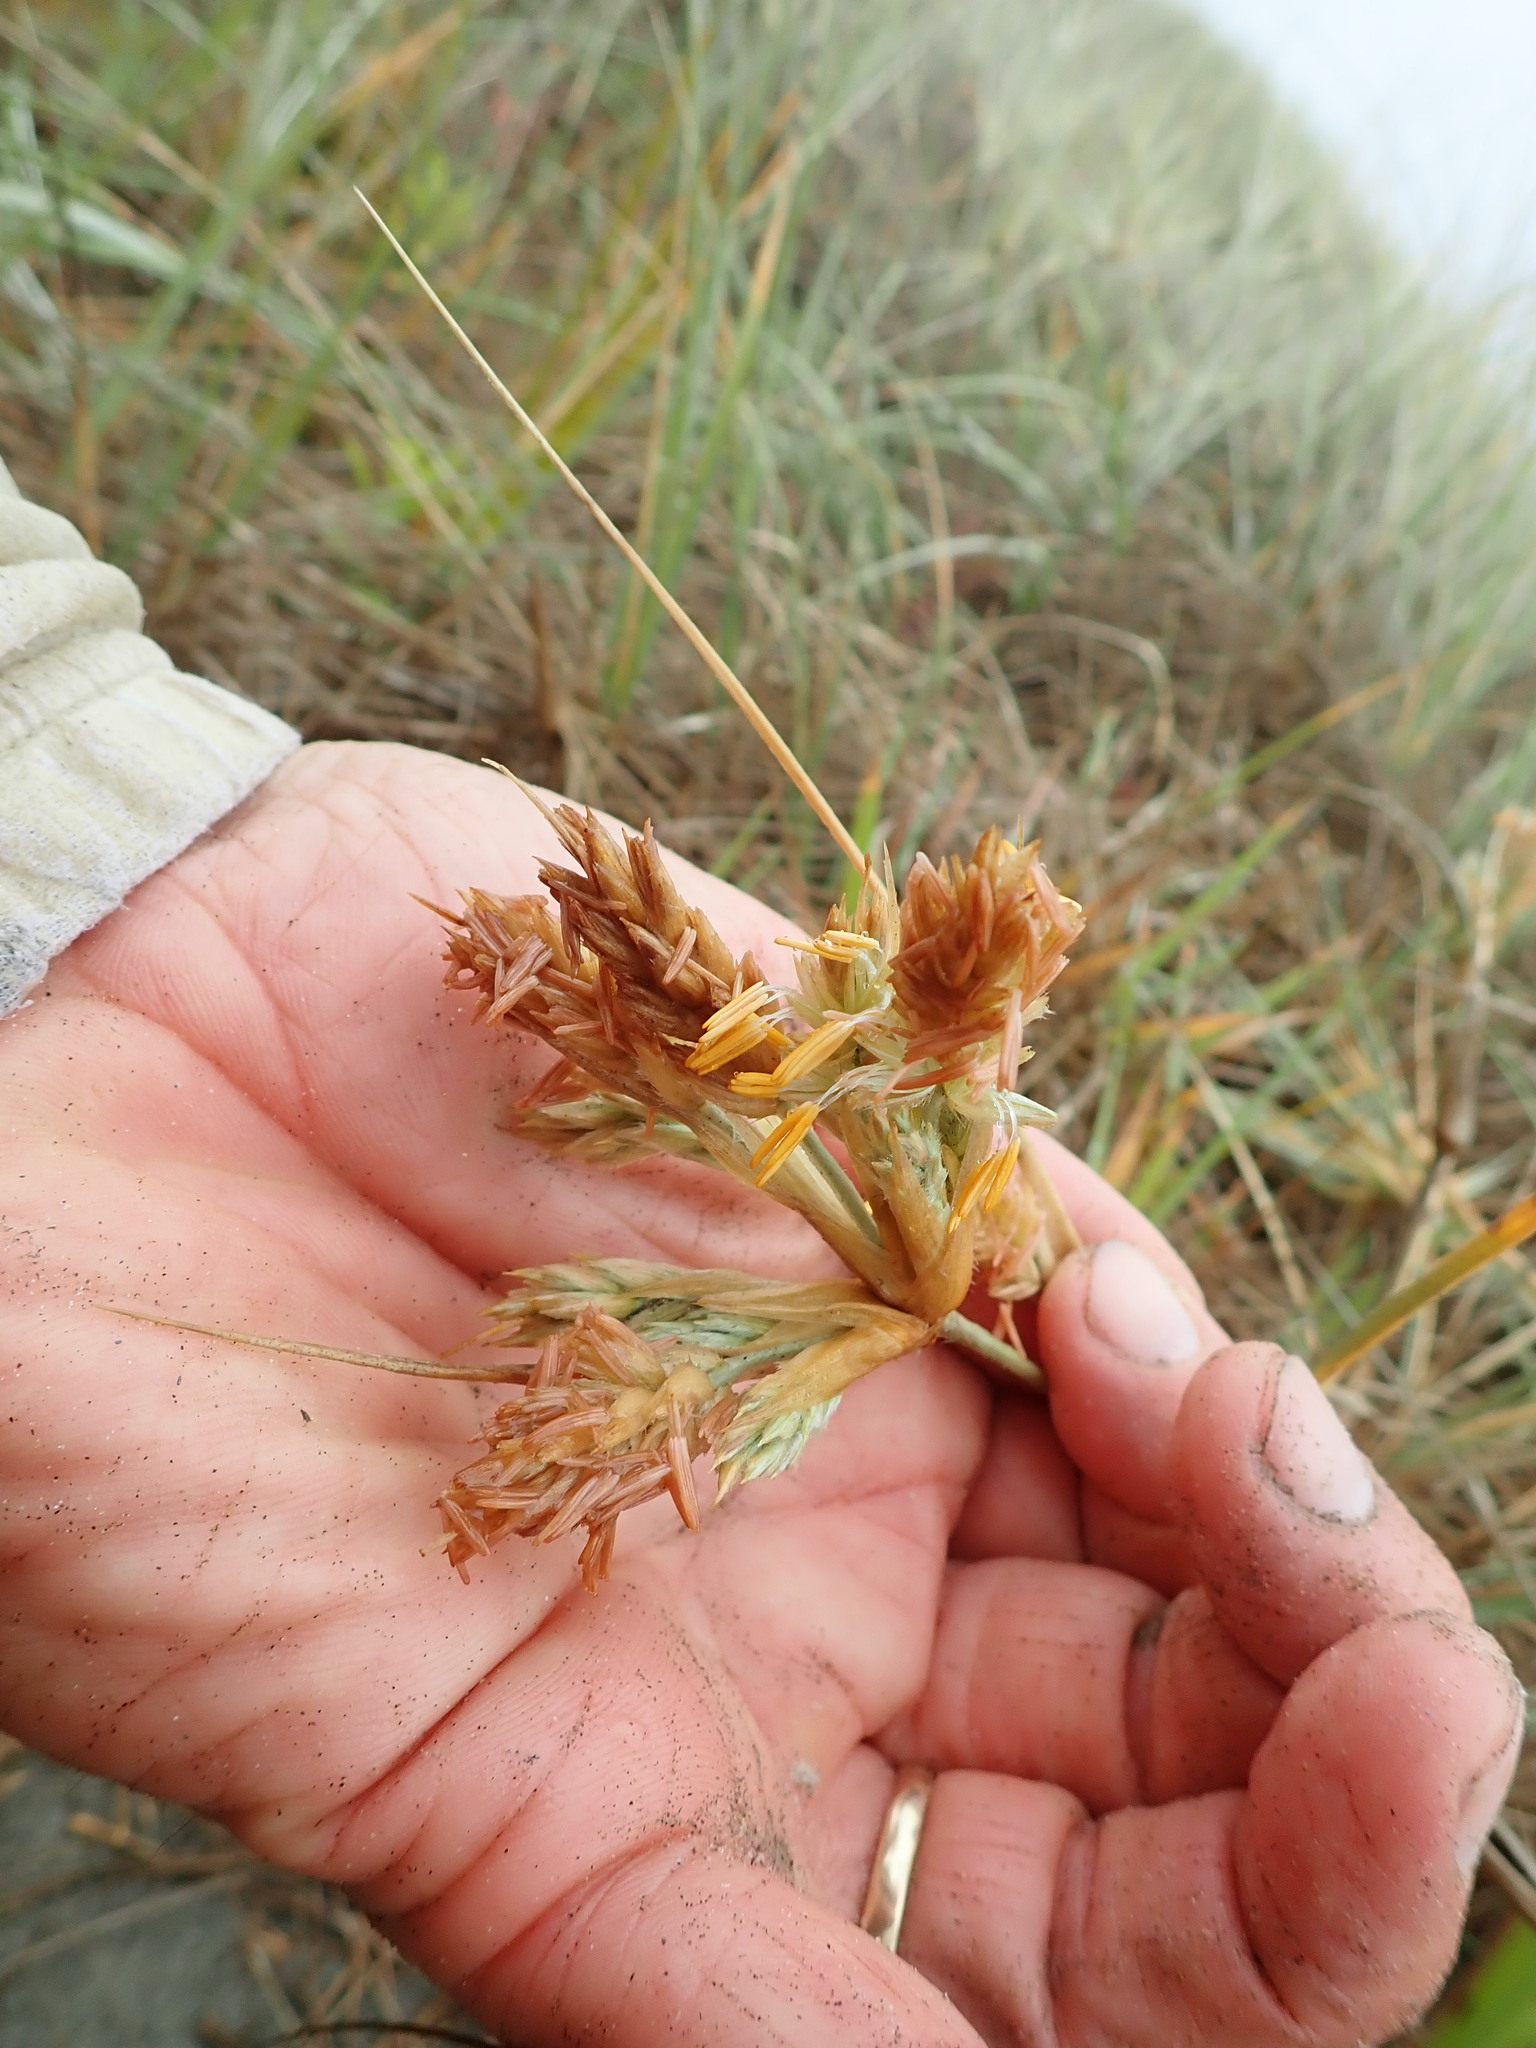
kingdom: Plantae
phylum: Tracheophyta
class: Liliopsida
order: Poales
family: Poaceae
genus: Spinifex
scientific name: Spinifex sericeus
